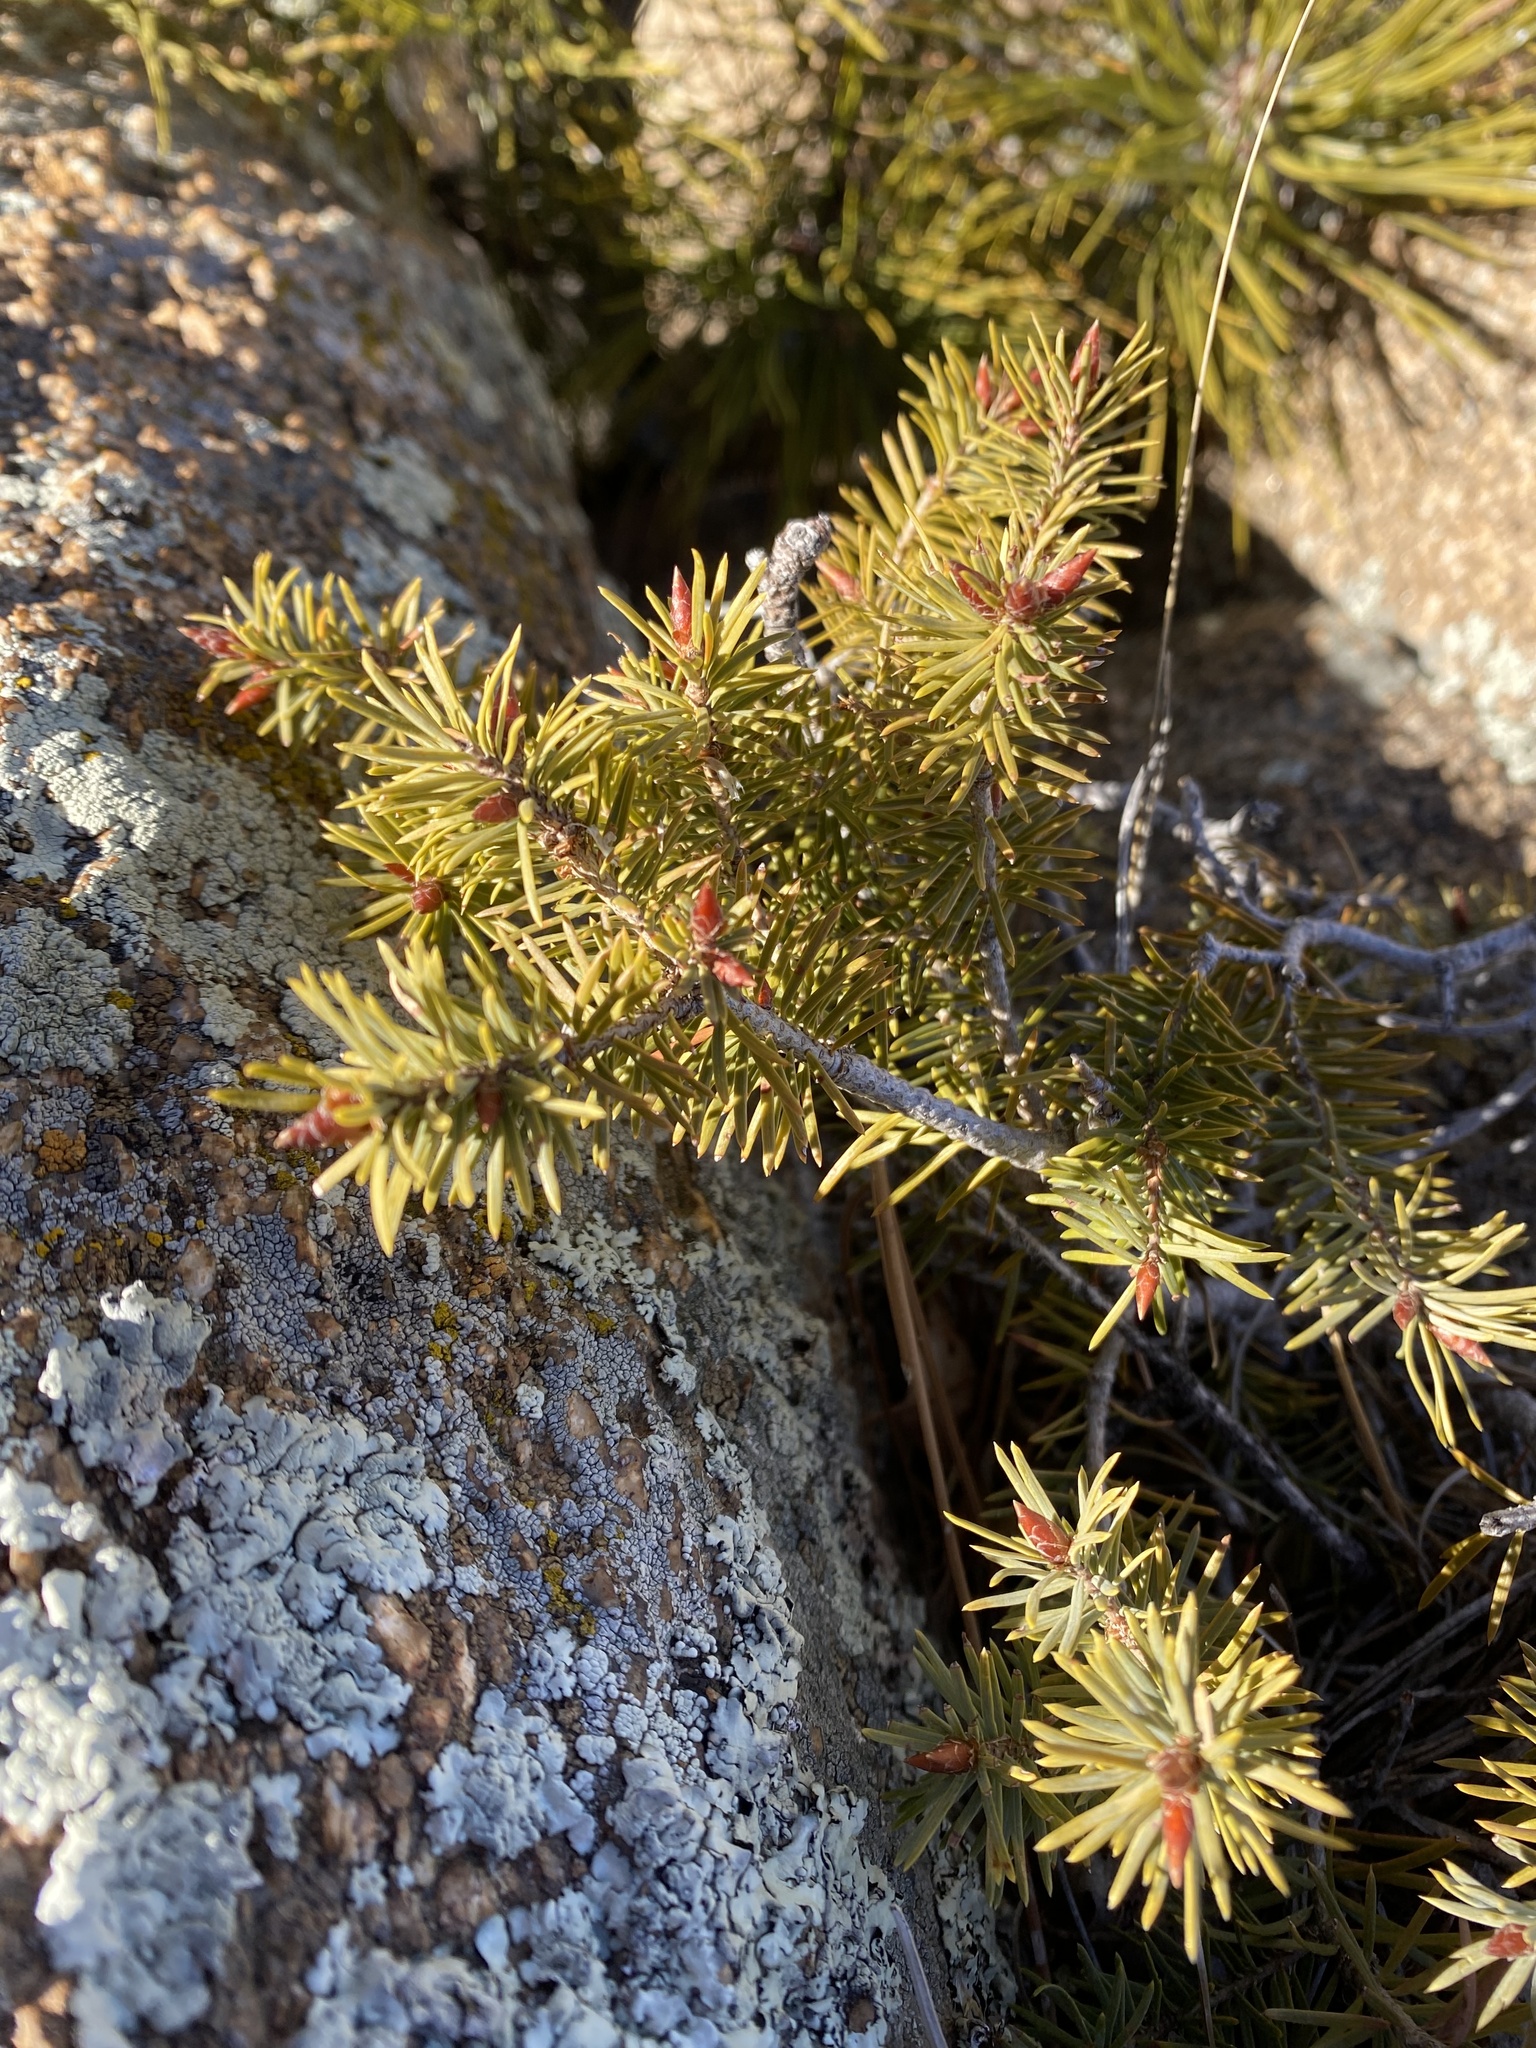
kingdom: Plantae
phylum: Tracheophyta
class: Pinopsida
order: Pinales
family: Pinaceae
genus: Pseudotsuga
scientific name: Pseudotsuga menziesii
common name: Douglas fir
